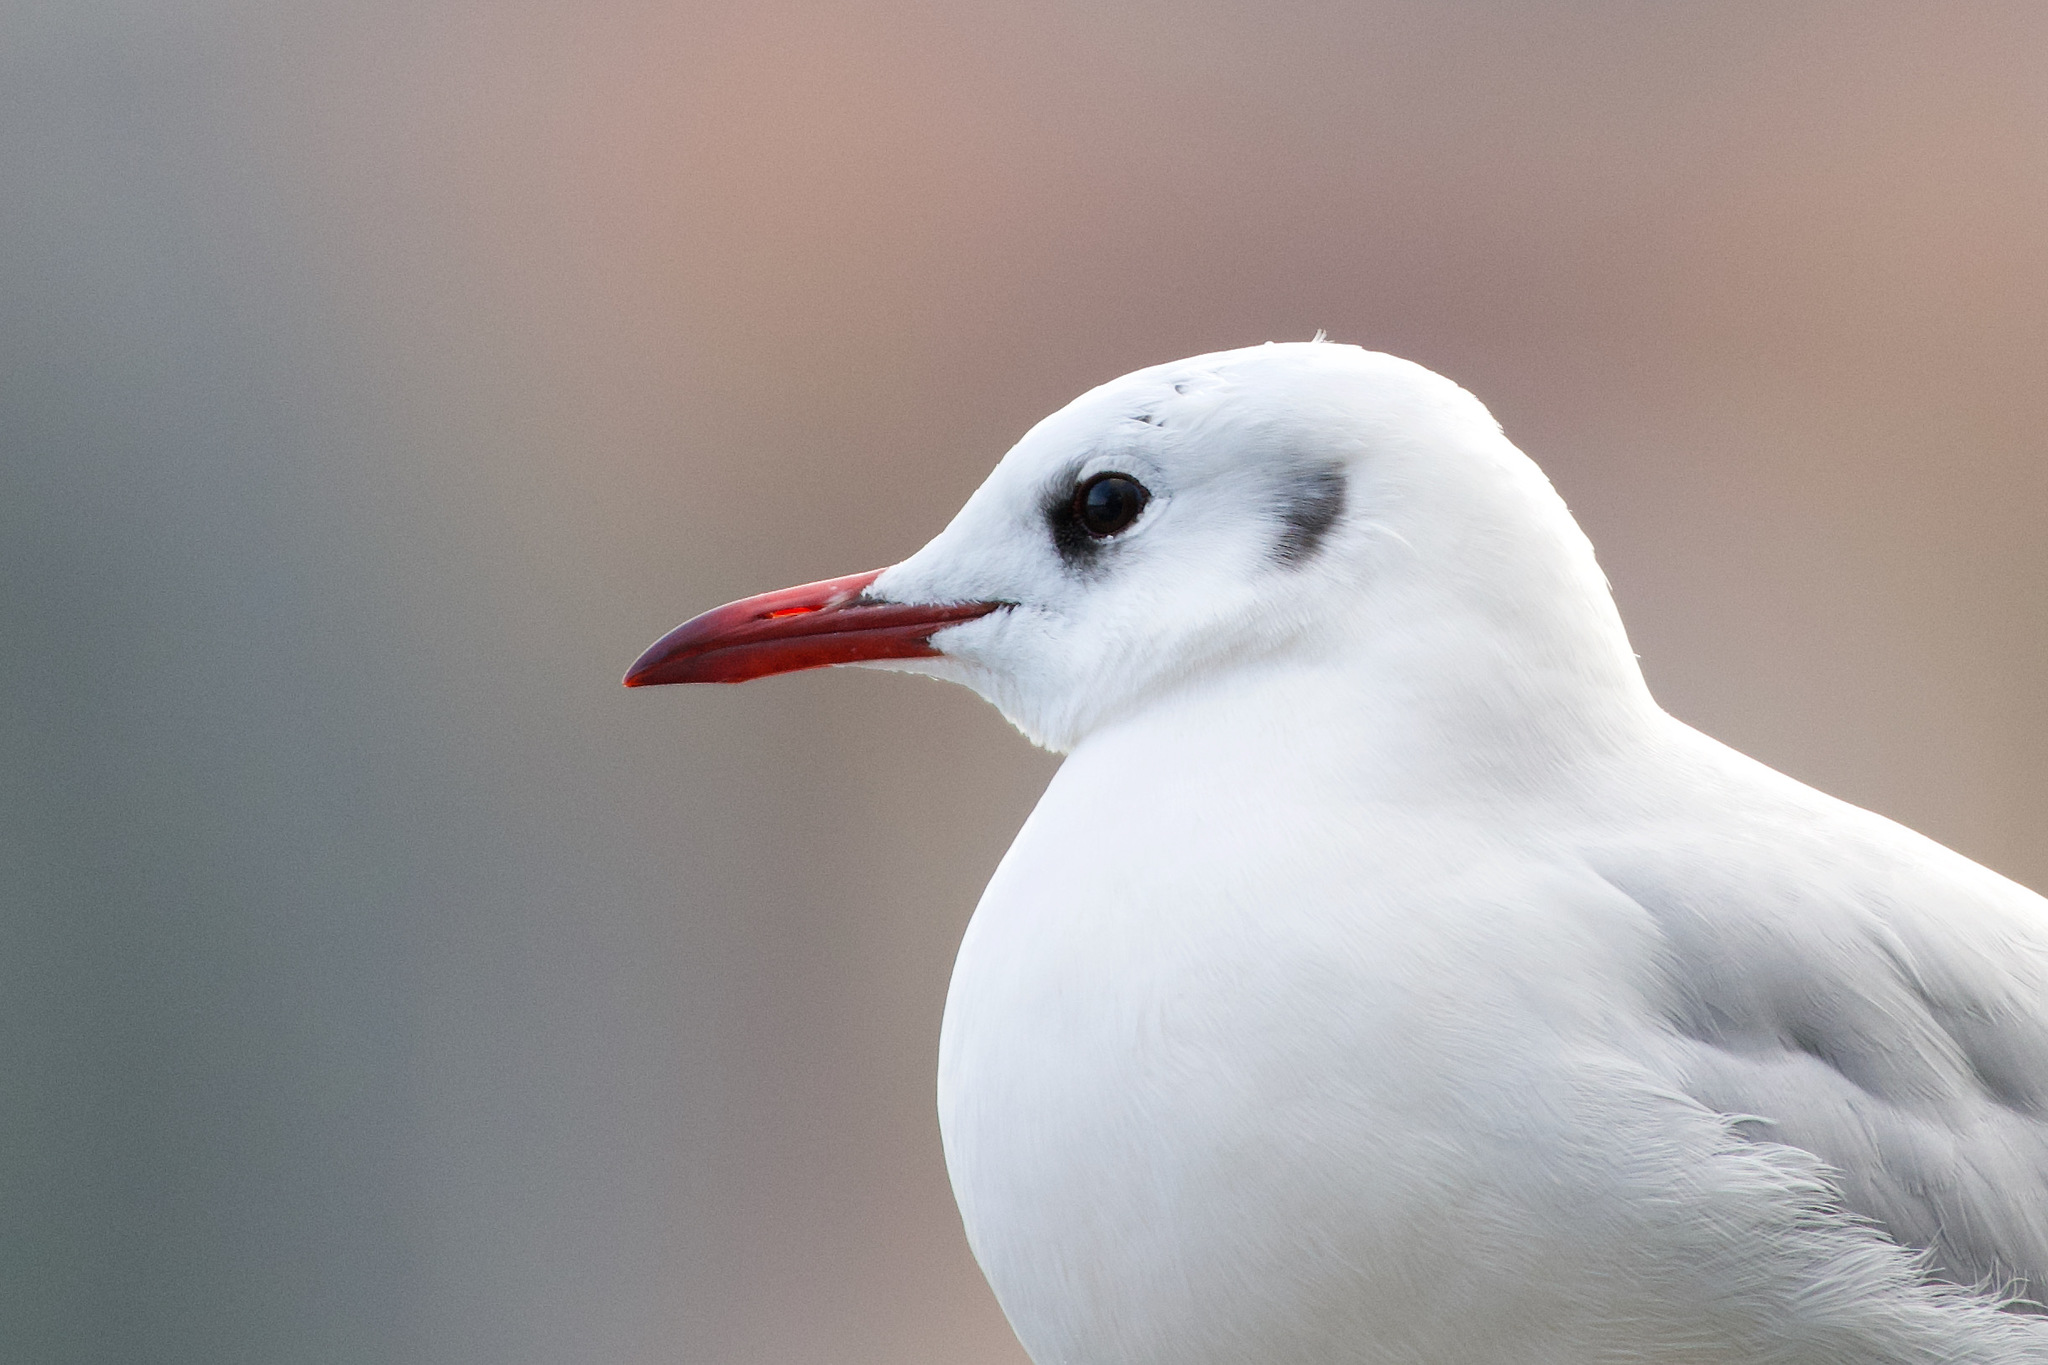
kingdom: Animalia
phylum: Chordata
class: Aves
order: Charadriiformes
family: Laridae
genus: Chroicocephalus
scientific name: Chroicocephalus ridibundus
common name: Black-headed gull
